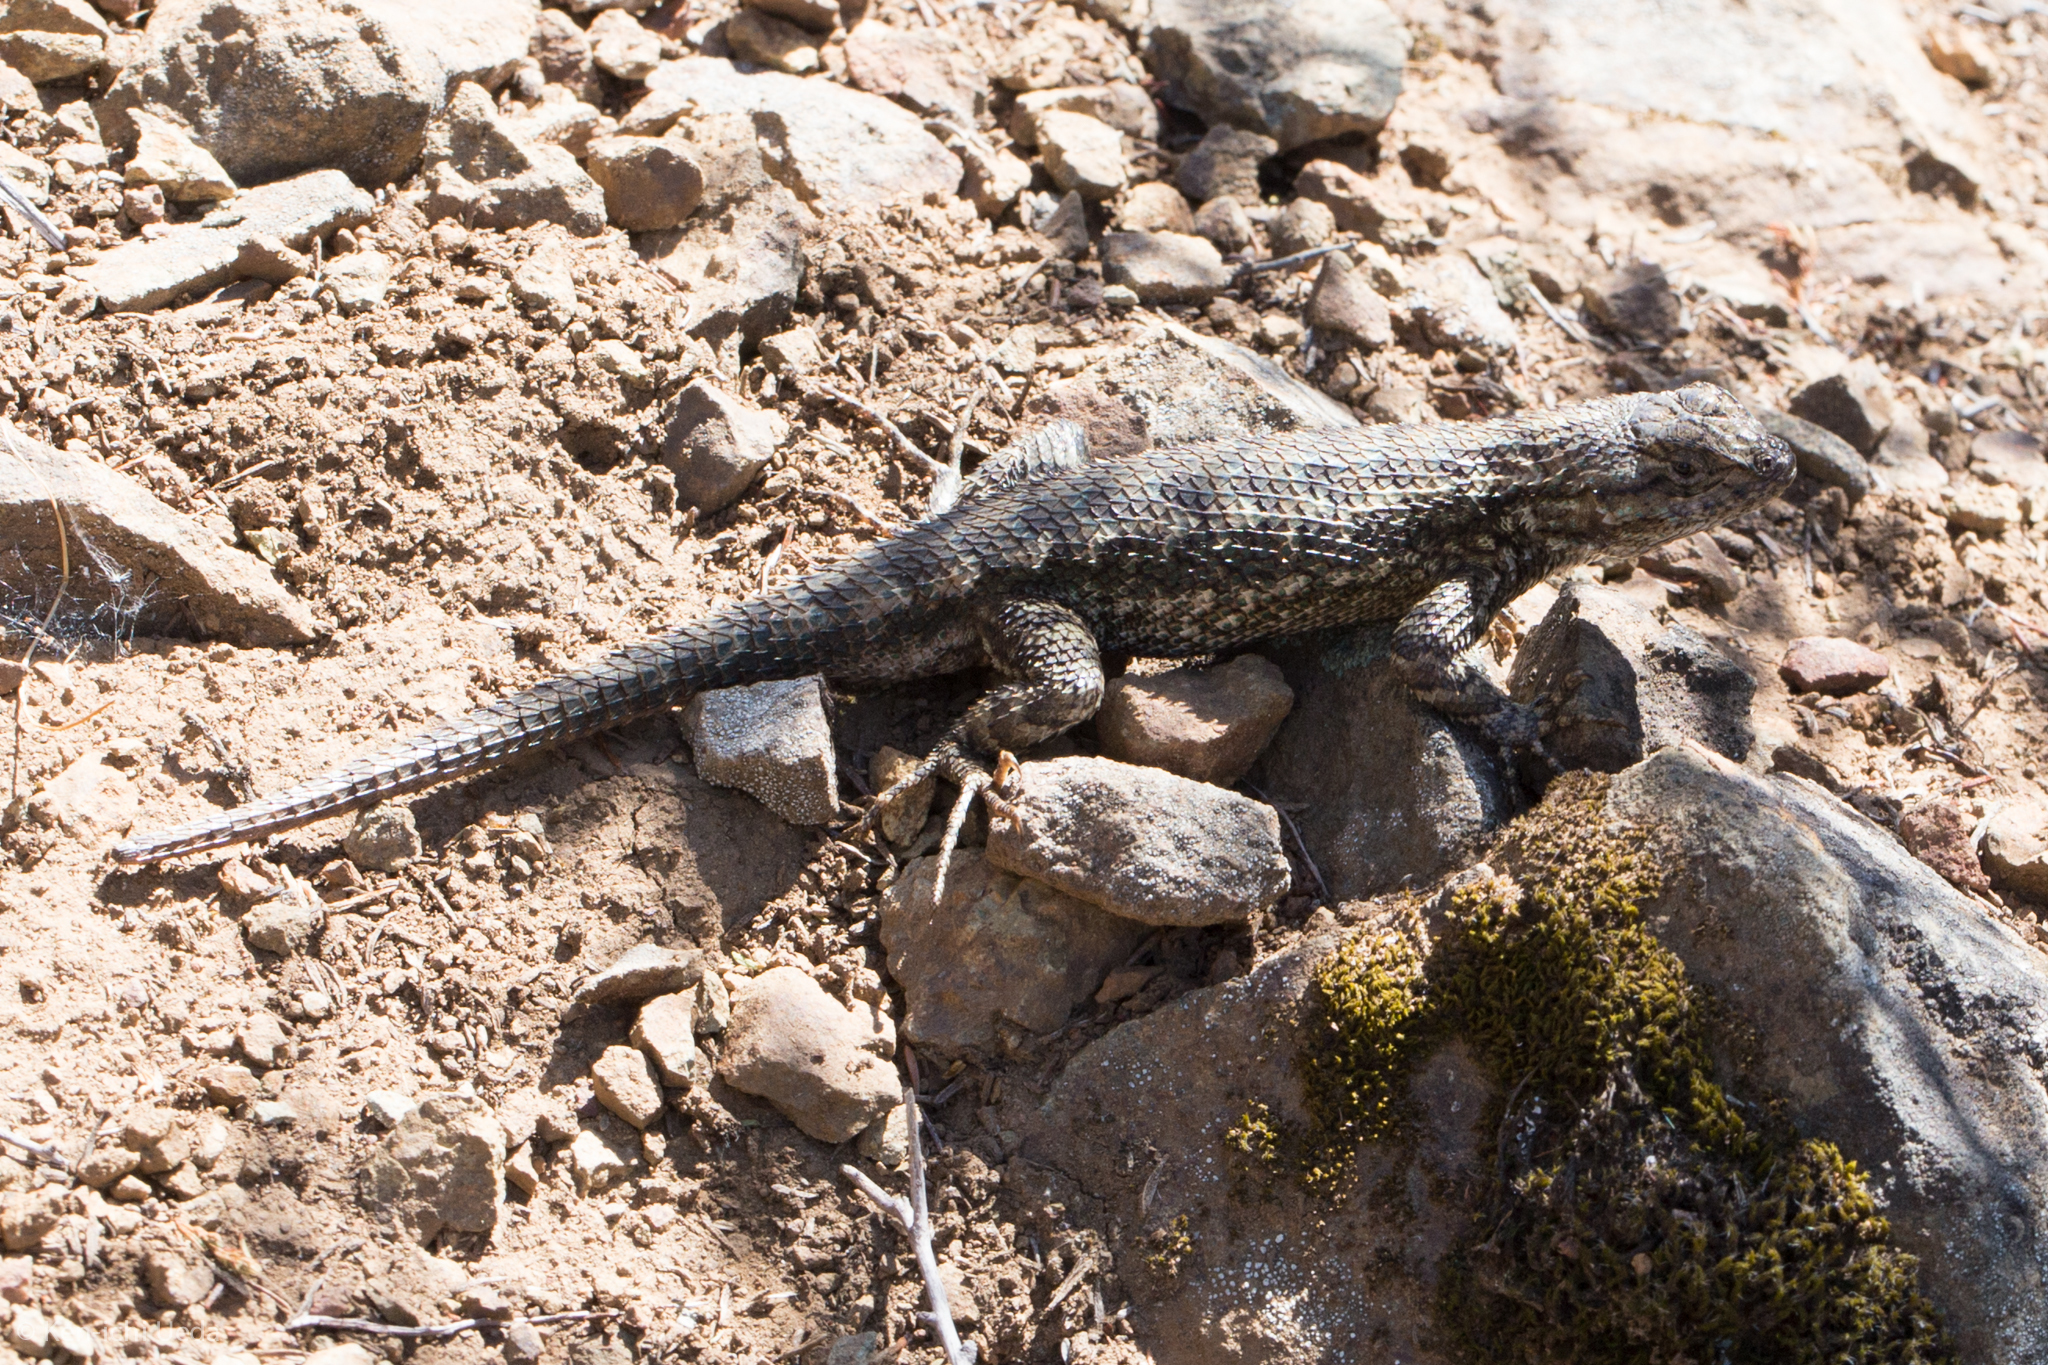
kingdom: Animalia
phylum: Chordata
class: Squamata
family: Phrynosomatidae
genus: Sceloporus
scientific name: Sceloporus occidentalis
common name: Western fence lizard
